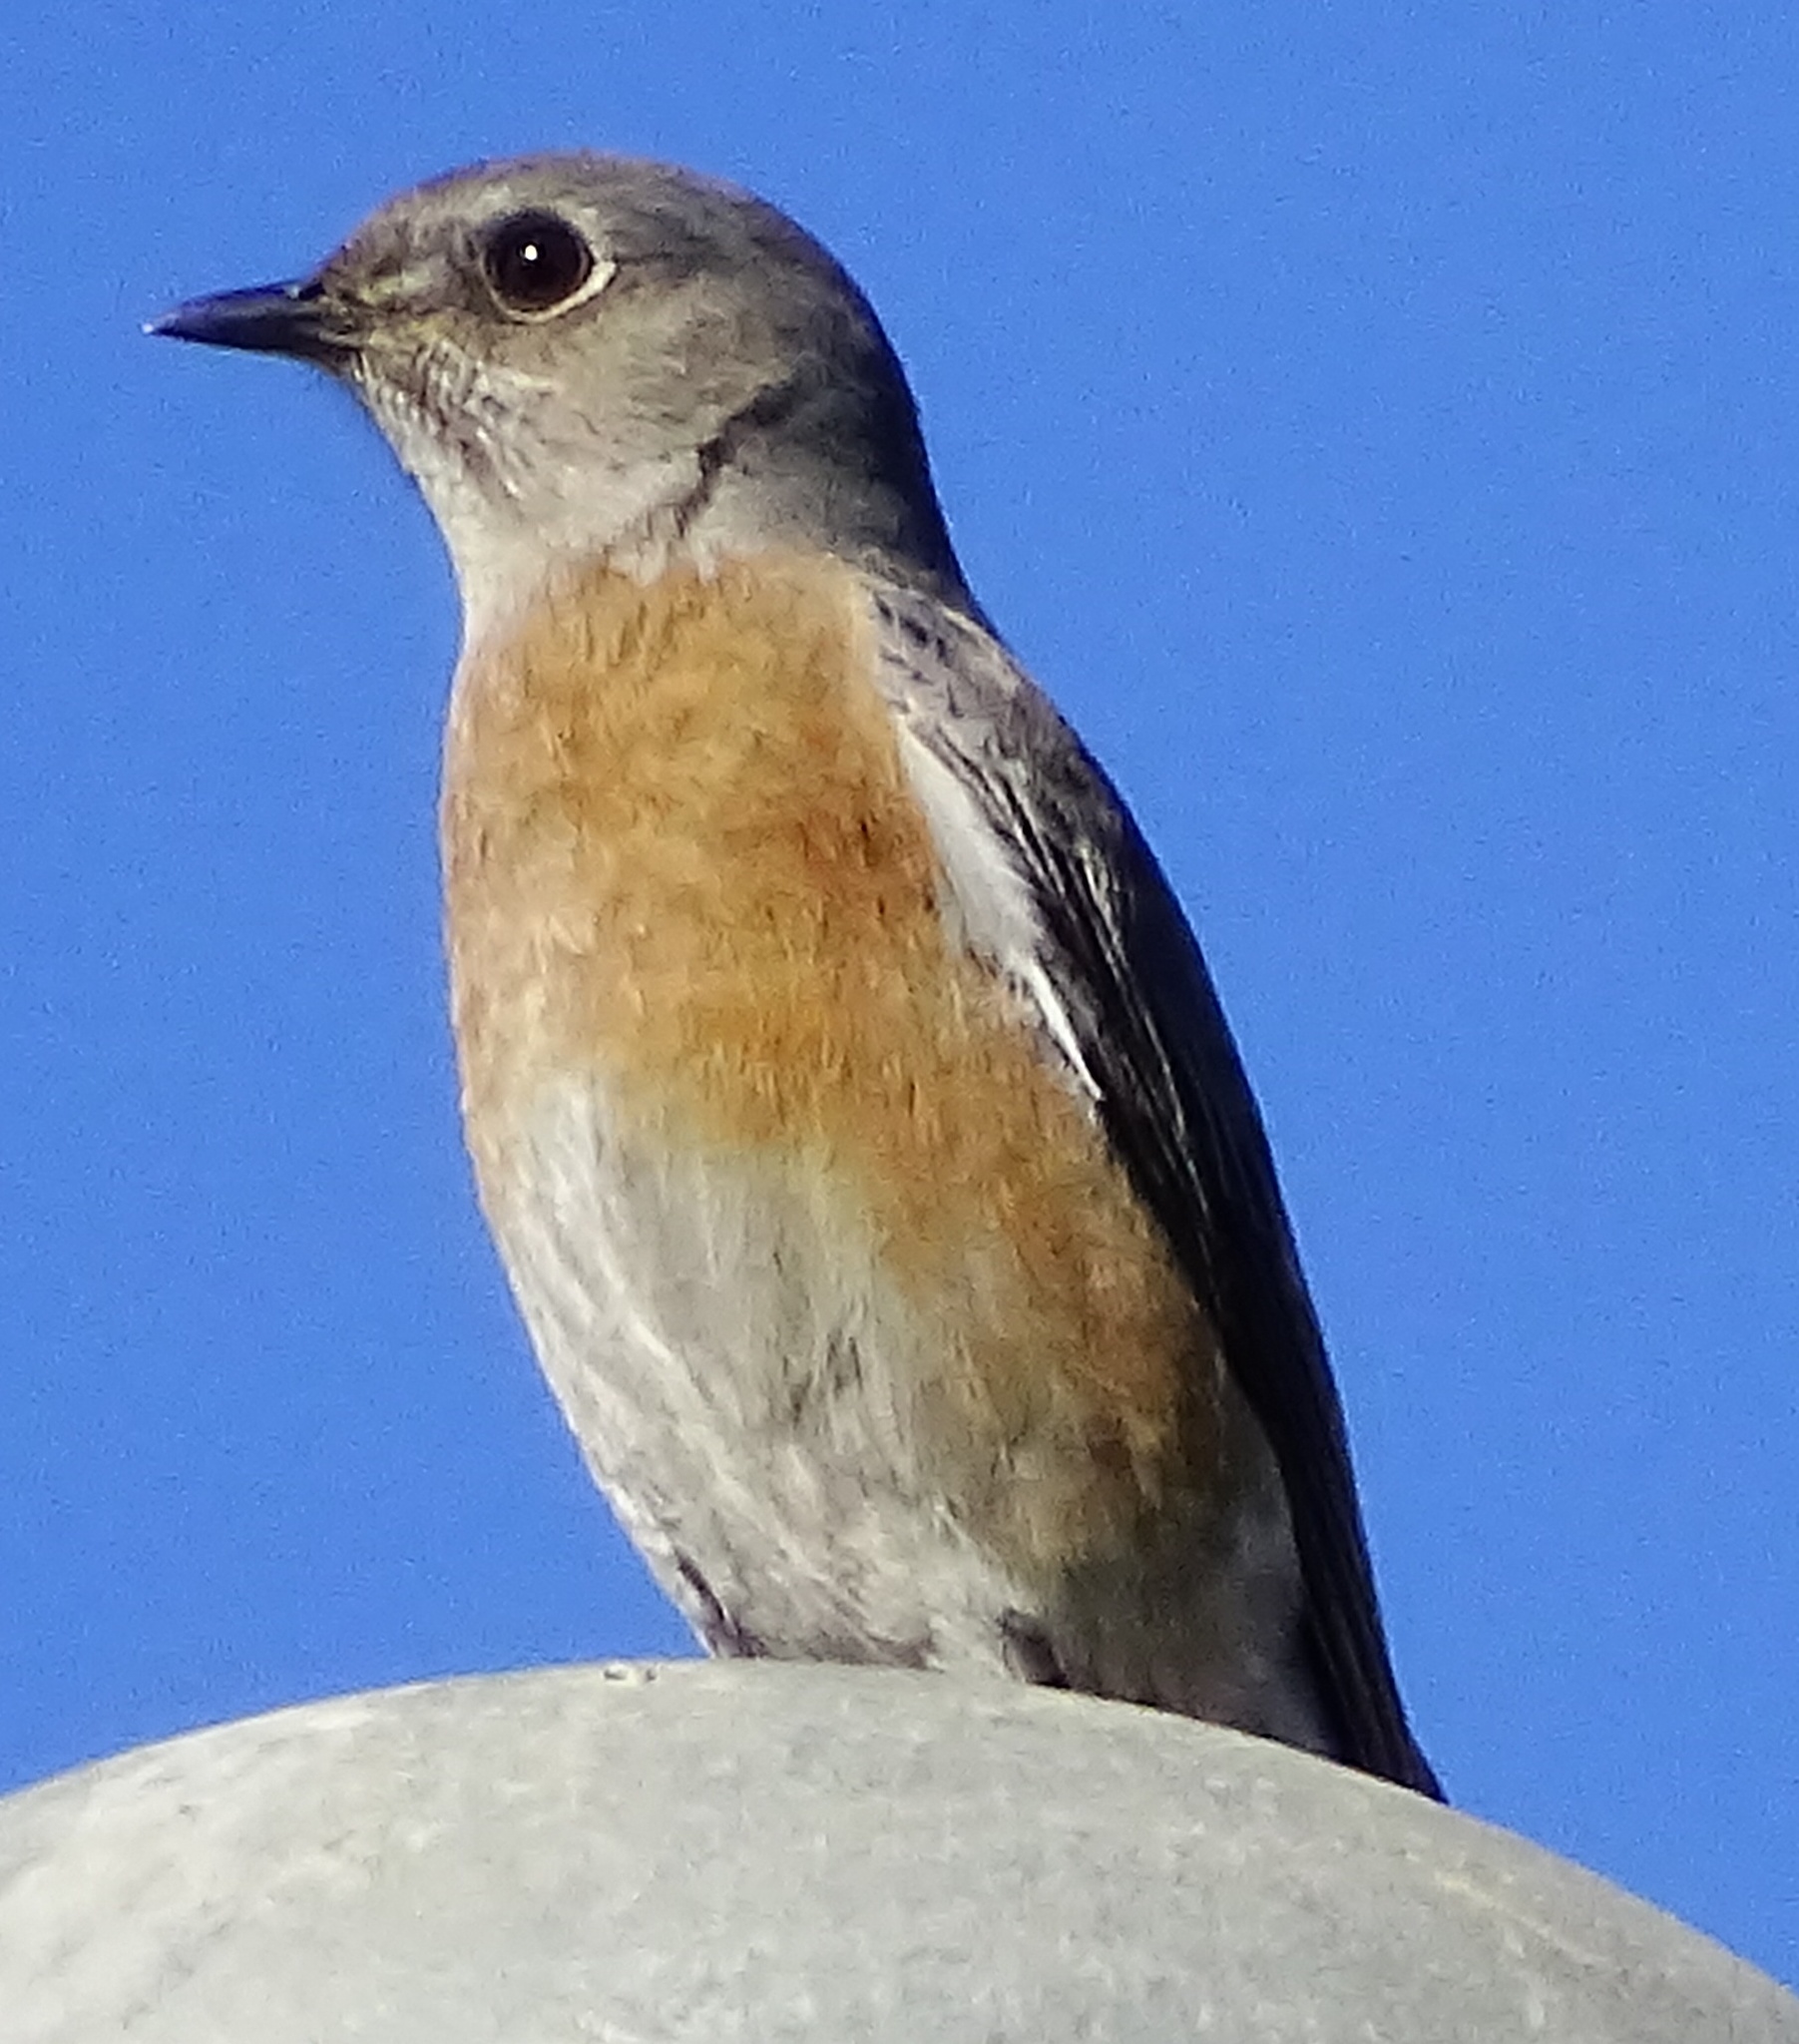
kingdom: Animalia
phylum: Chordata
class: Aves
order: Passeriformes
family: Turdidae
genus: Sialia
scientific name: Sialia mexicana
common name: Western bluebird
